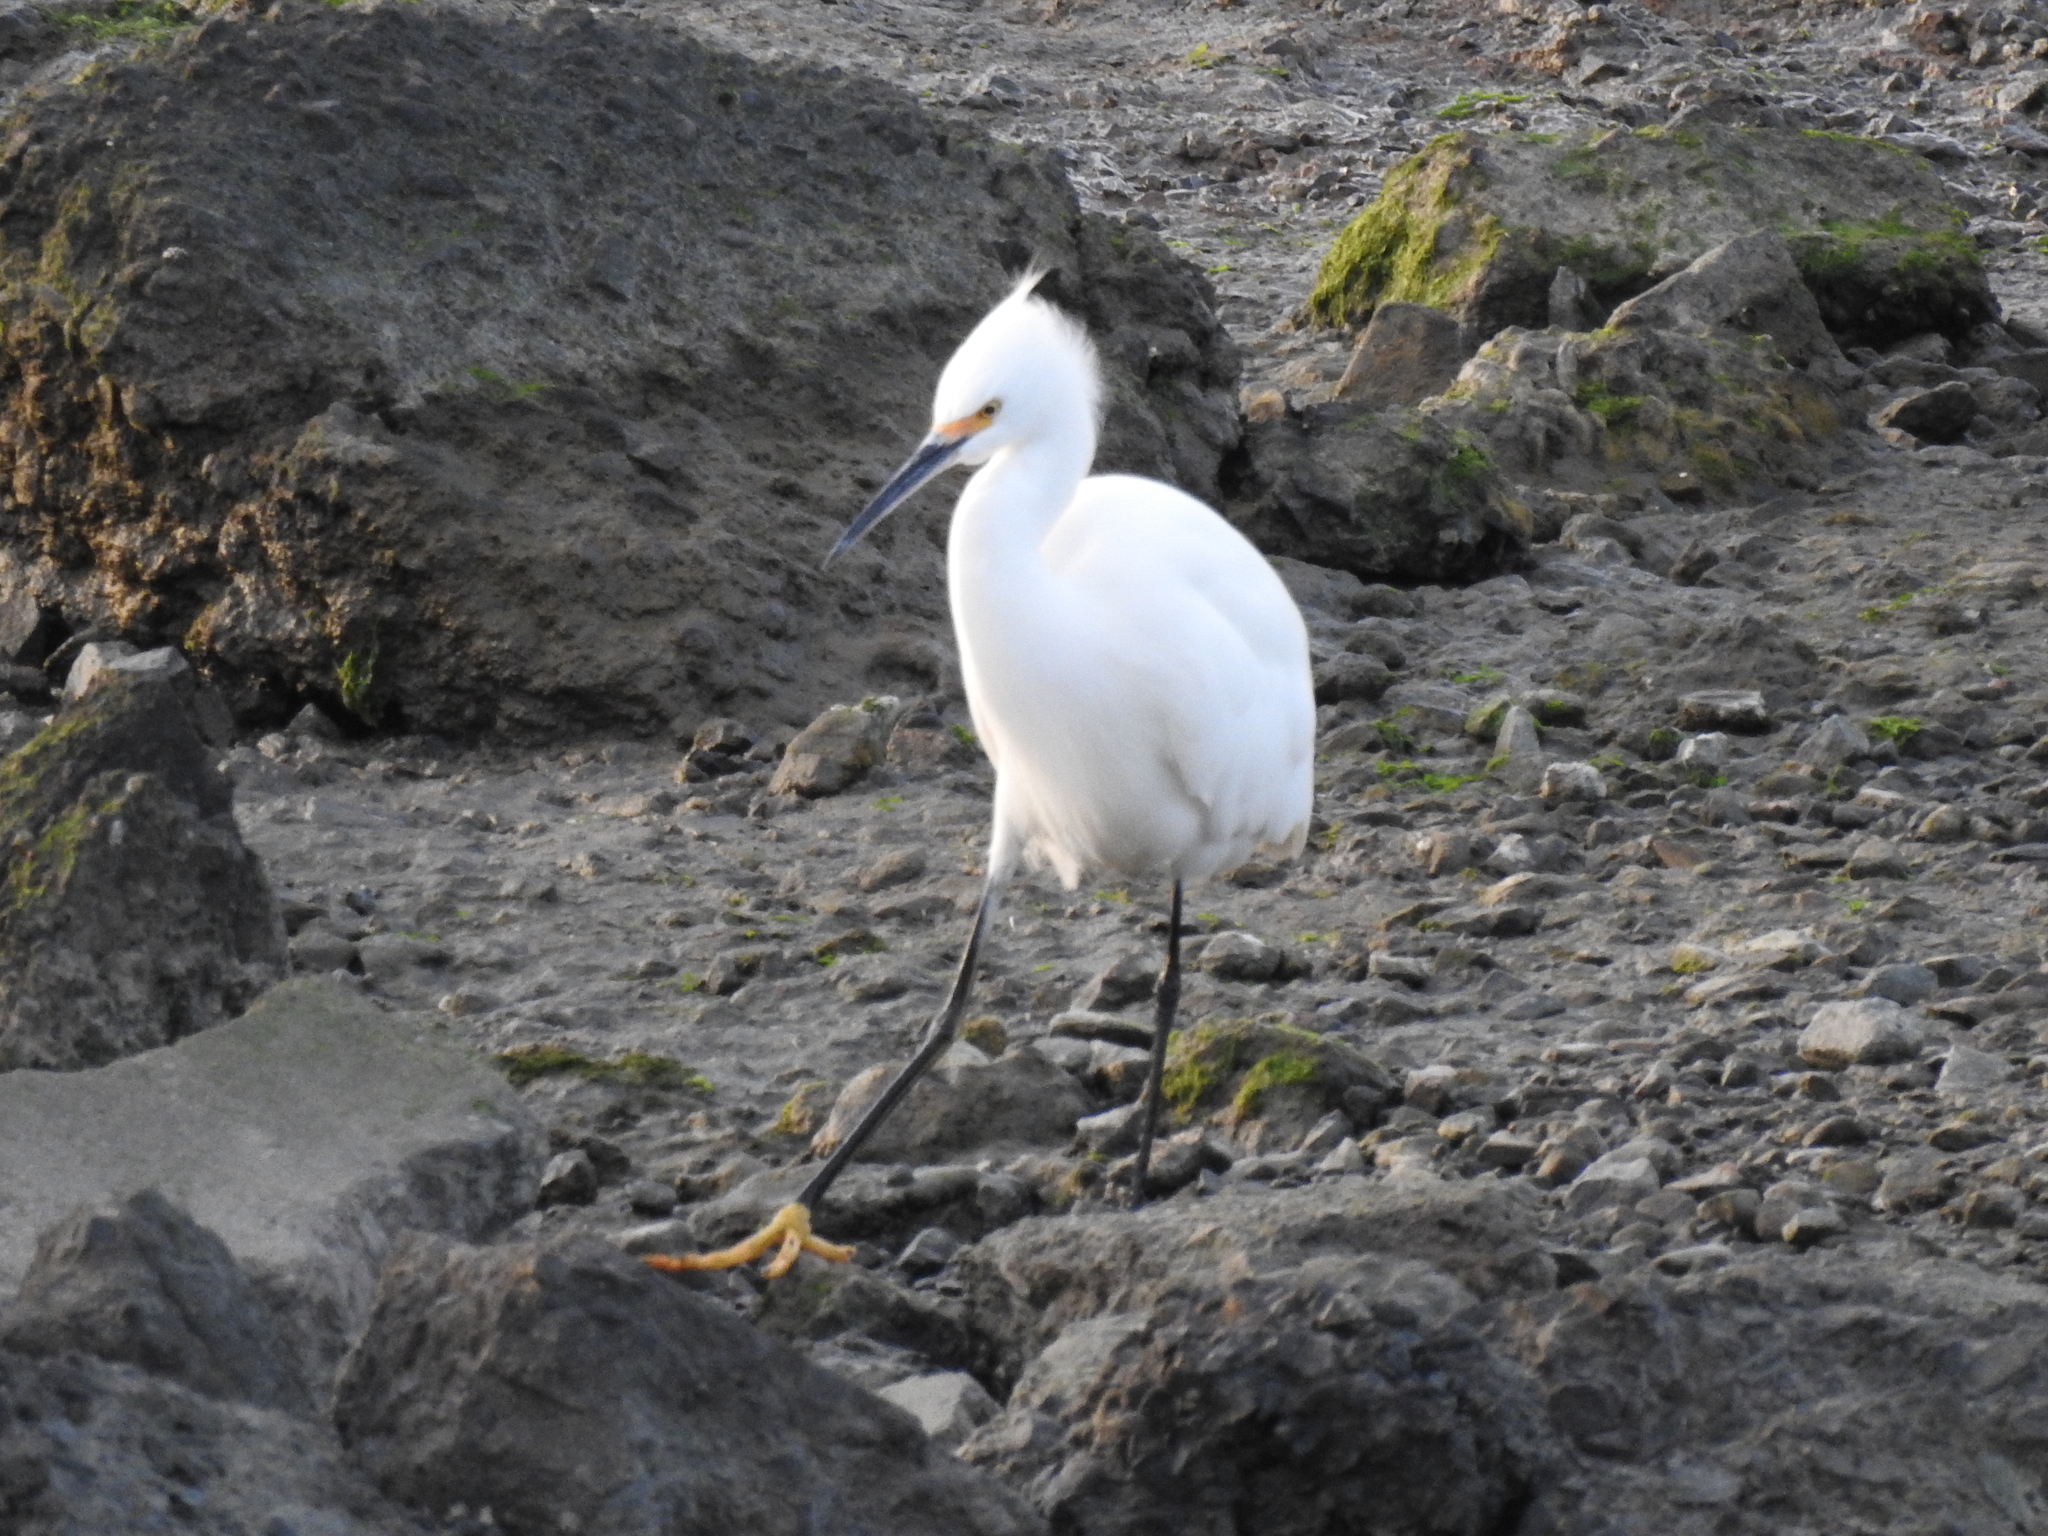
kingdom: Animalia
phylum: Chordata
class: Aves
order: Pelecaniformes
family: Ardeidae
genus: Egretta
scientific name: Egretta thula
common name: Snowy egret
